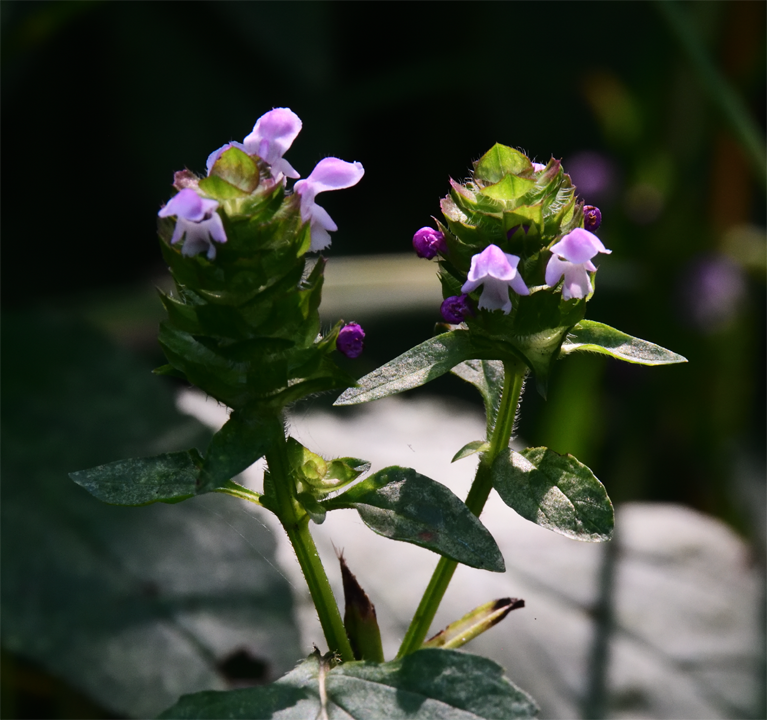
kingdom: Plantae
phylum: Tracheophyta
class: Magnoliopsida
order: Lamiales
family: Lamiaceae
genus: Prunella
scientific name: Prunella vulgaris
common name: Heal-all
